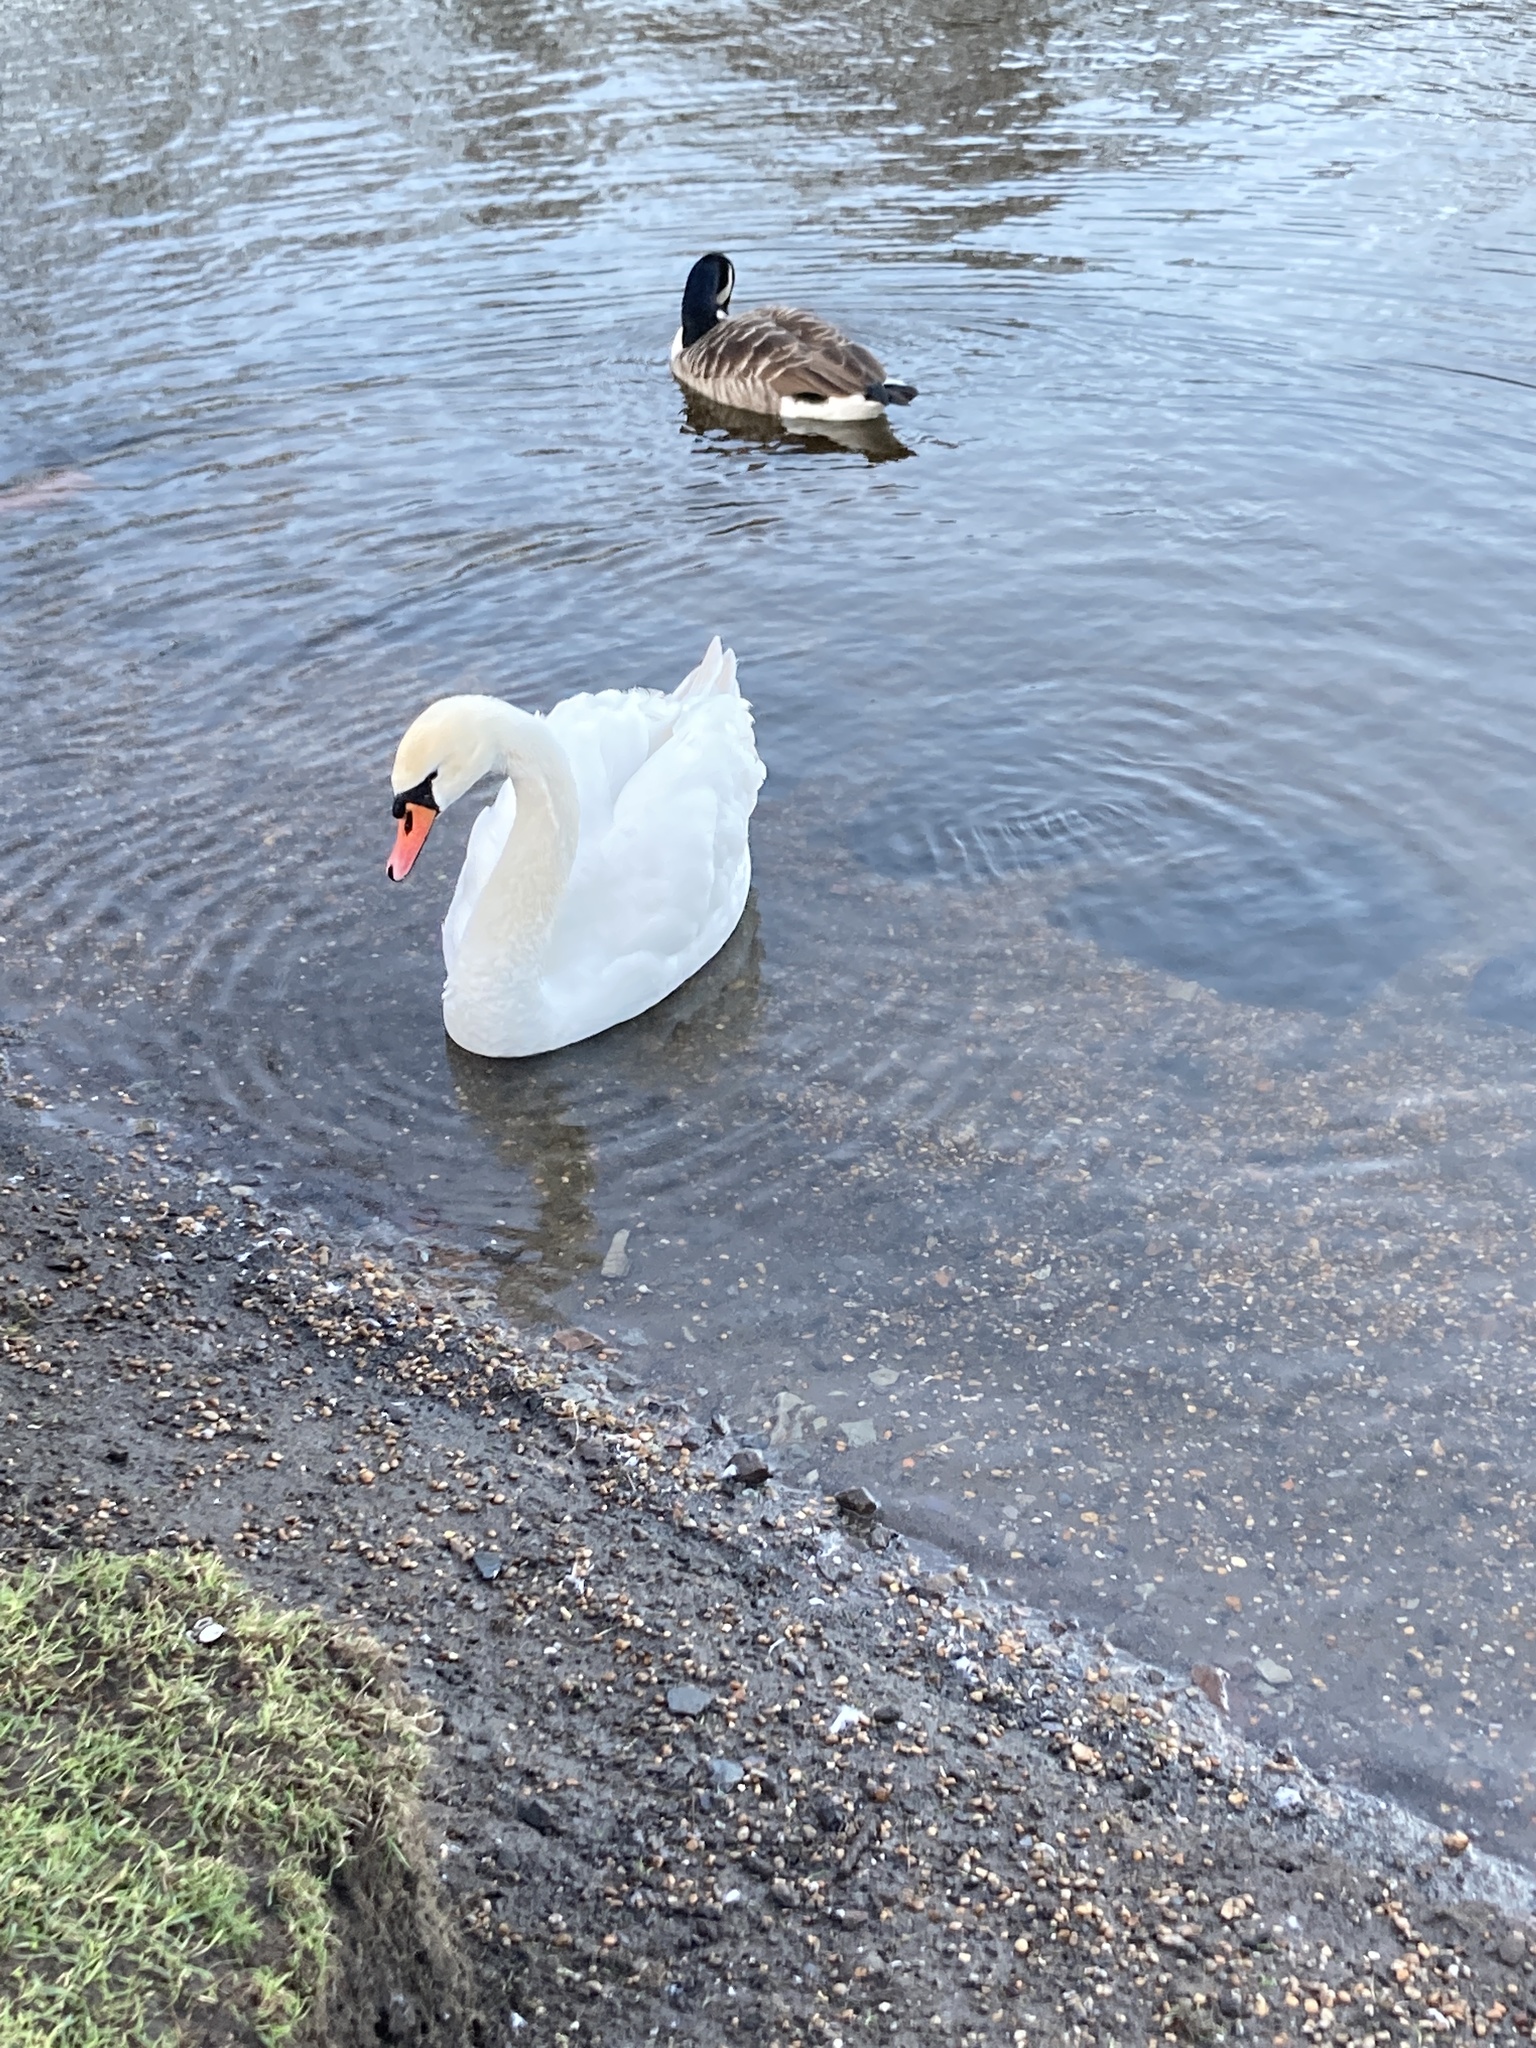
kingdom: Animalia
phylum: Chordata
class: Aves
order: Anseriformes
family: Anatidae
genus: Cygnus
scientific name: Cygnus olor
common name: Mute swan
